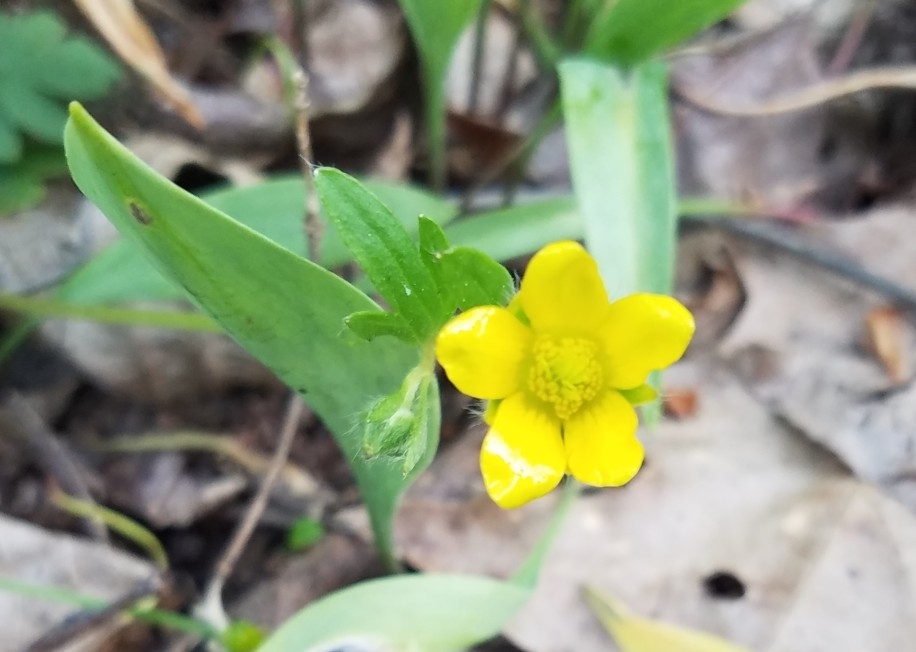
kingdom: Plantae
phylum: Tracheophyta
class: Magnoliopsida
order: Ranunculales
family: Ranunculaceae
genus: Ranunculus
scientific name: Ranunculus hispidus
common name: Bristly buttercup
